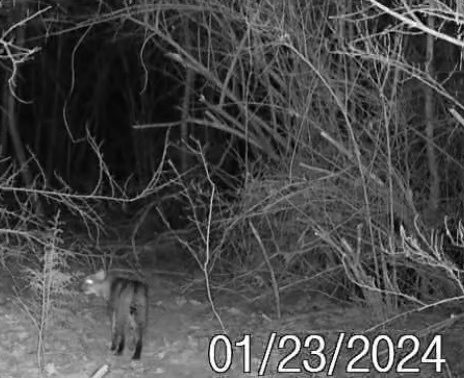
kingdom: Animalia
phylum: Chordata
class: Mammalia
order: Carnivora
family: Felidae
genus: Lynx
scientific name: Lynx rufus
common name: Bobcat
